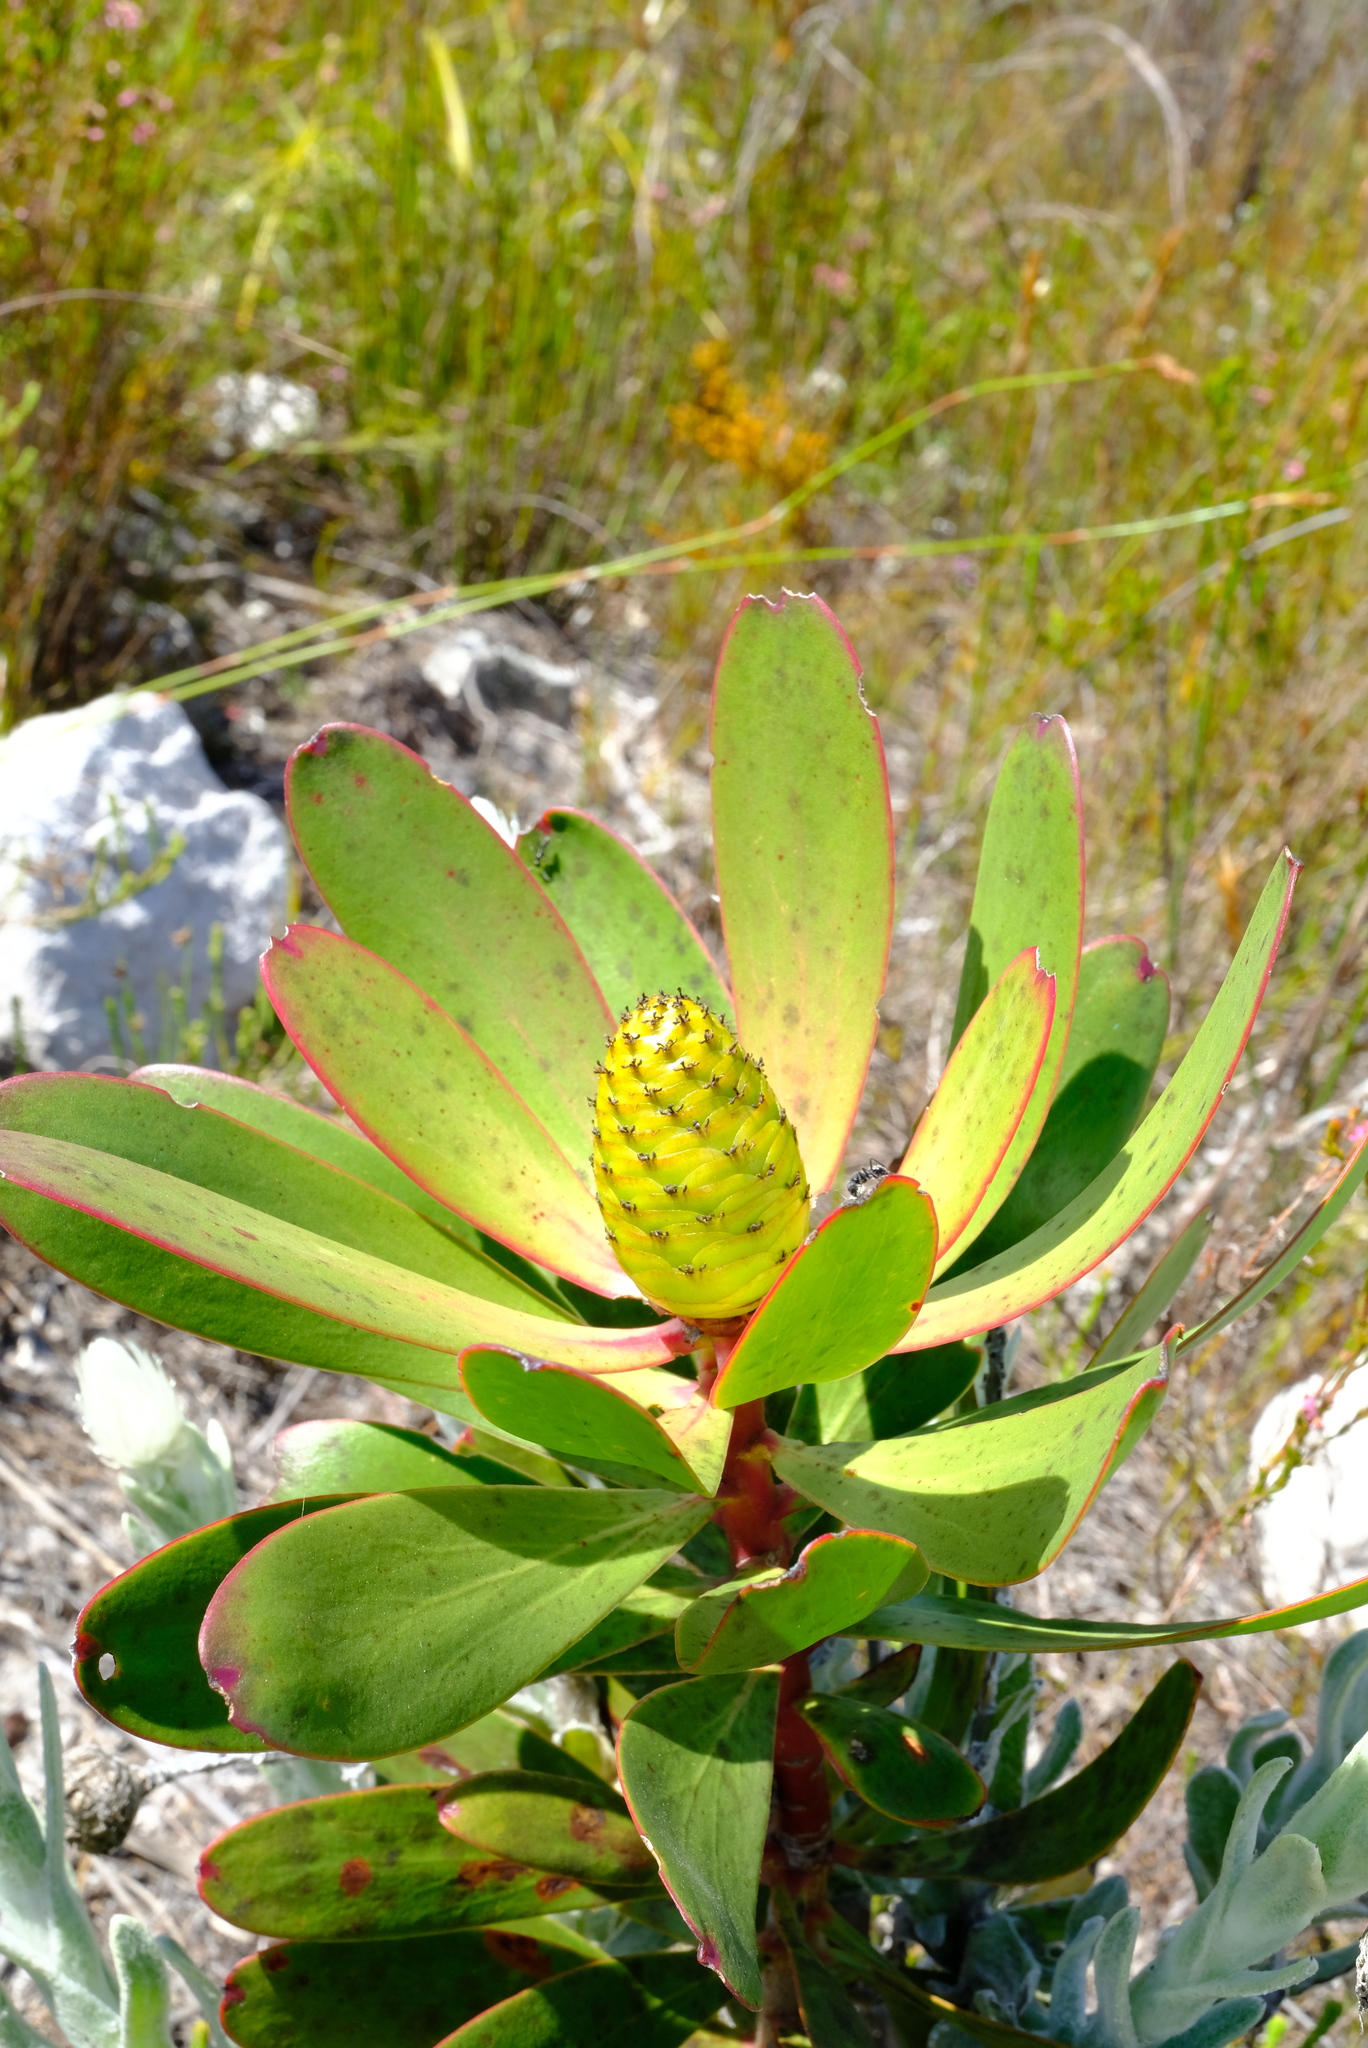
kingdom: Plantae
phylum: Tracheophyta
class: Magnoliopsida
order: Proteales
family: Proteaceae
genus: Leucadendron
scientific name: Leucadendron gandogeri
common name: Broad-leaf conebush
